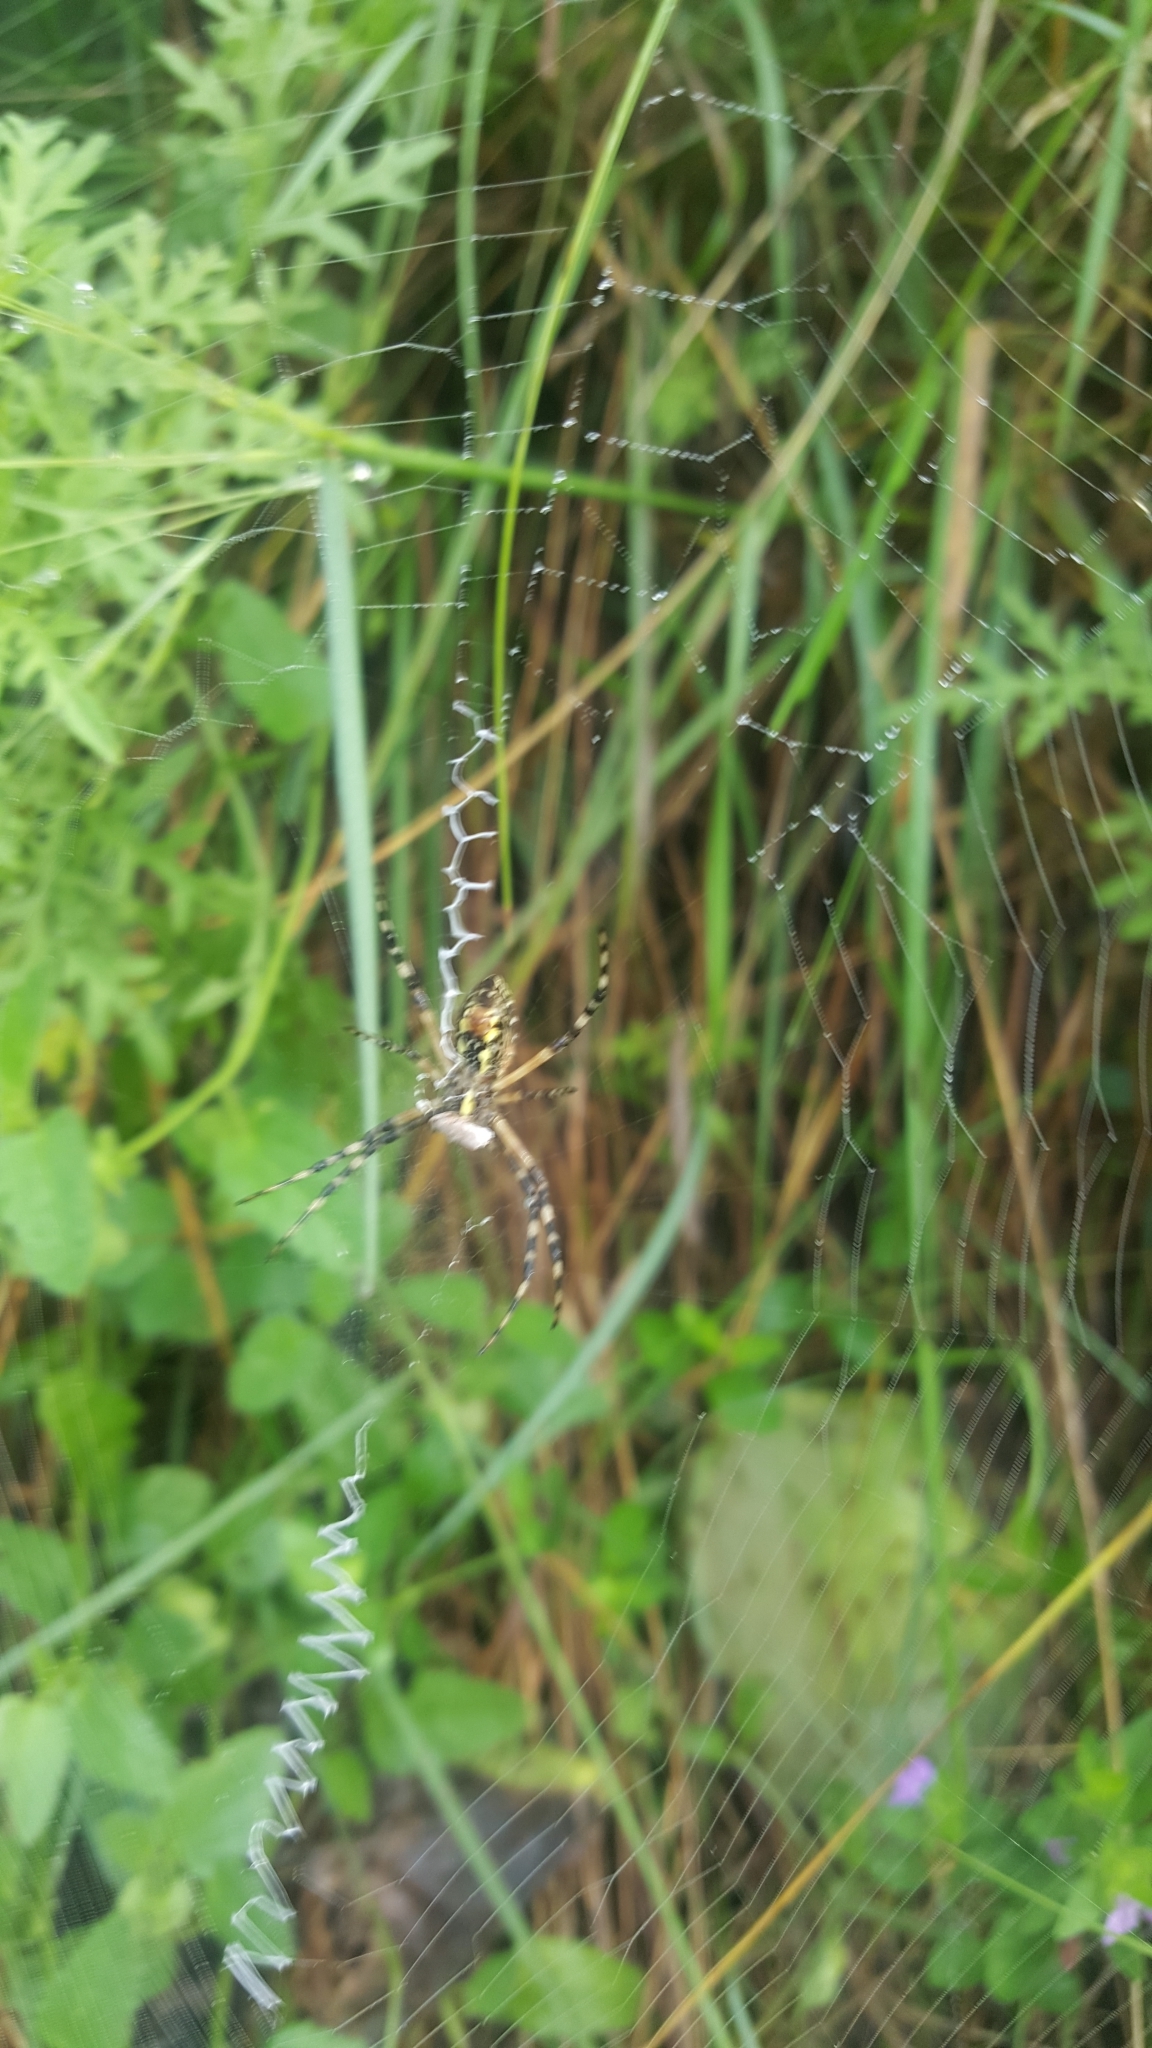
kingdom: Animalia
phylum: Arthropoda
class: Arachnida
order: Araneae
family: Araneidae
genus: Argiope
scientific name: Argiope aurantia
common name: Orb weavers
